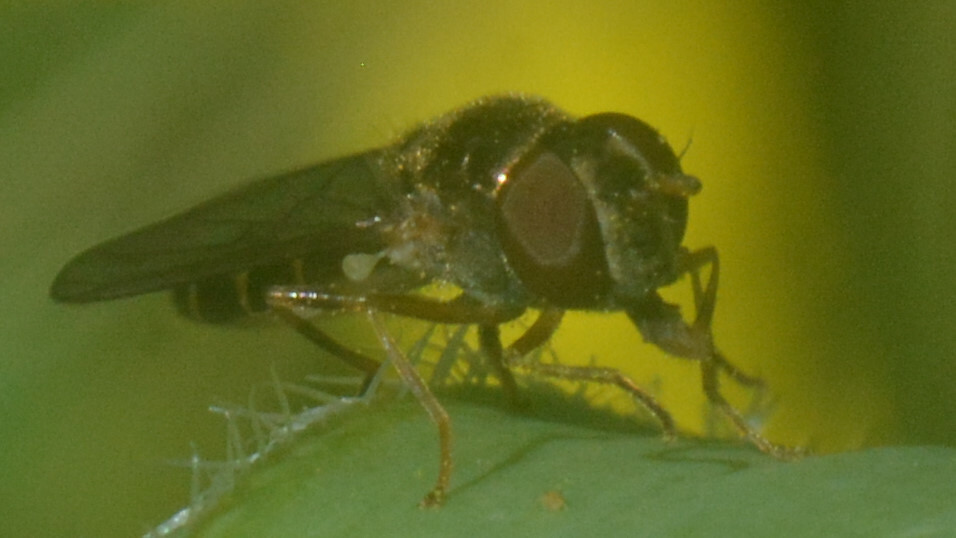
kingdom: Animalia
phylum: Arthropoda
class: Insecta
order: Diptera
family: Syrphidae
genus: Melanostoma
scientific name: Melanostoma scalare
